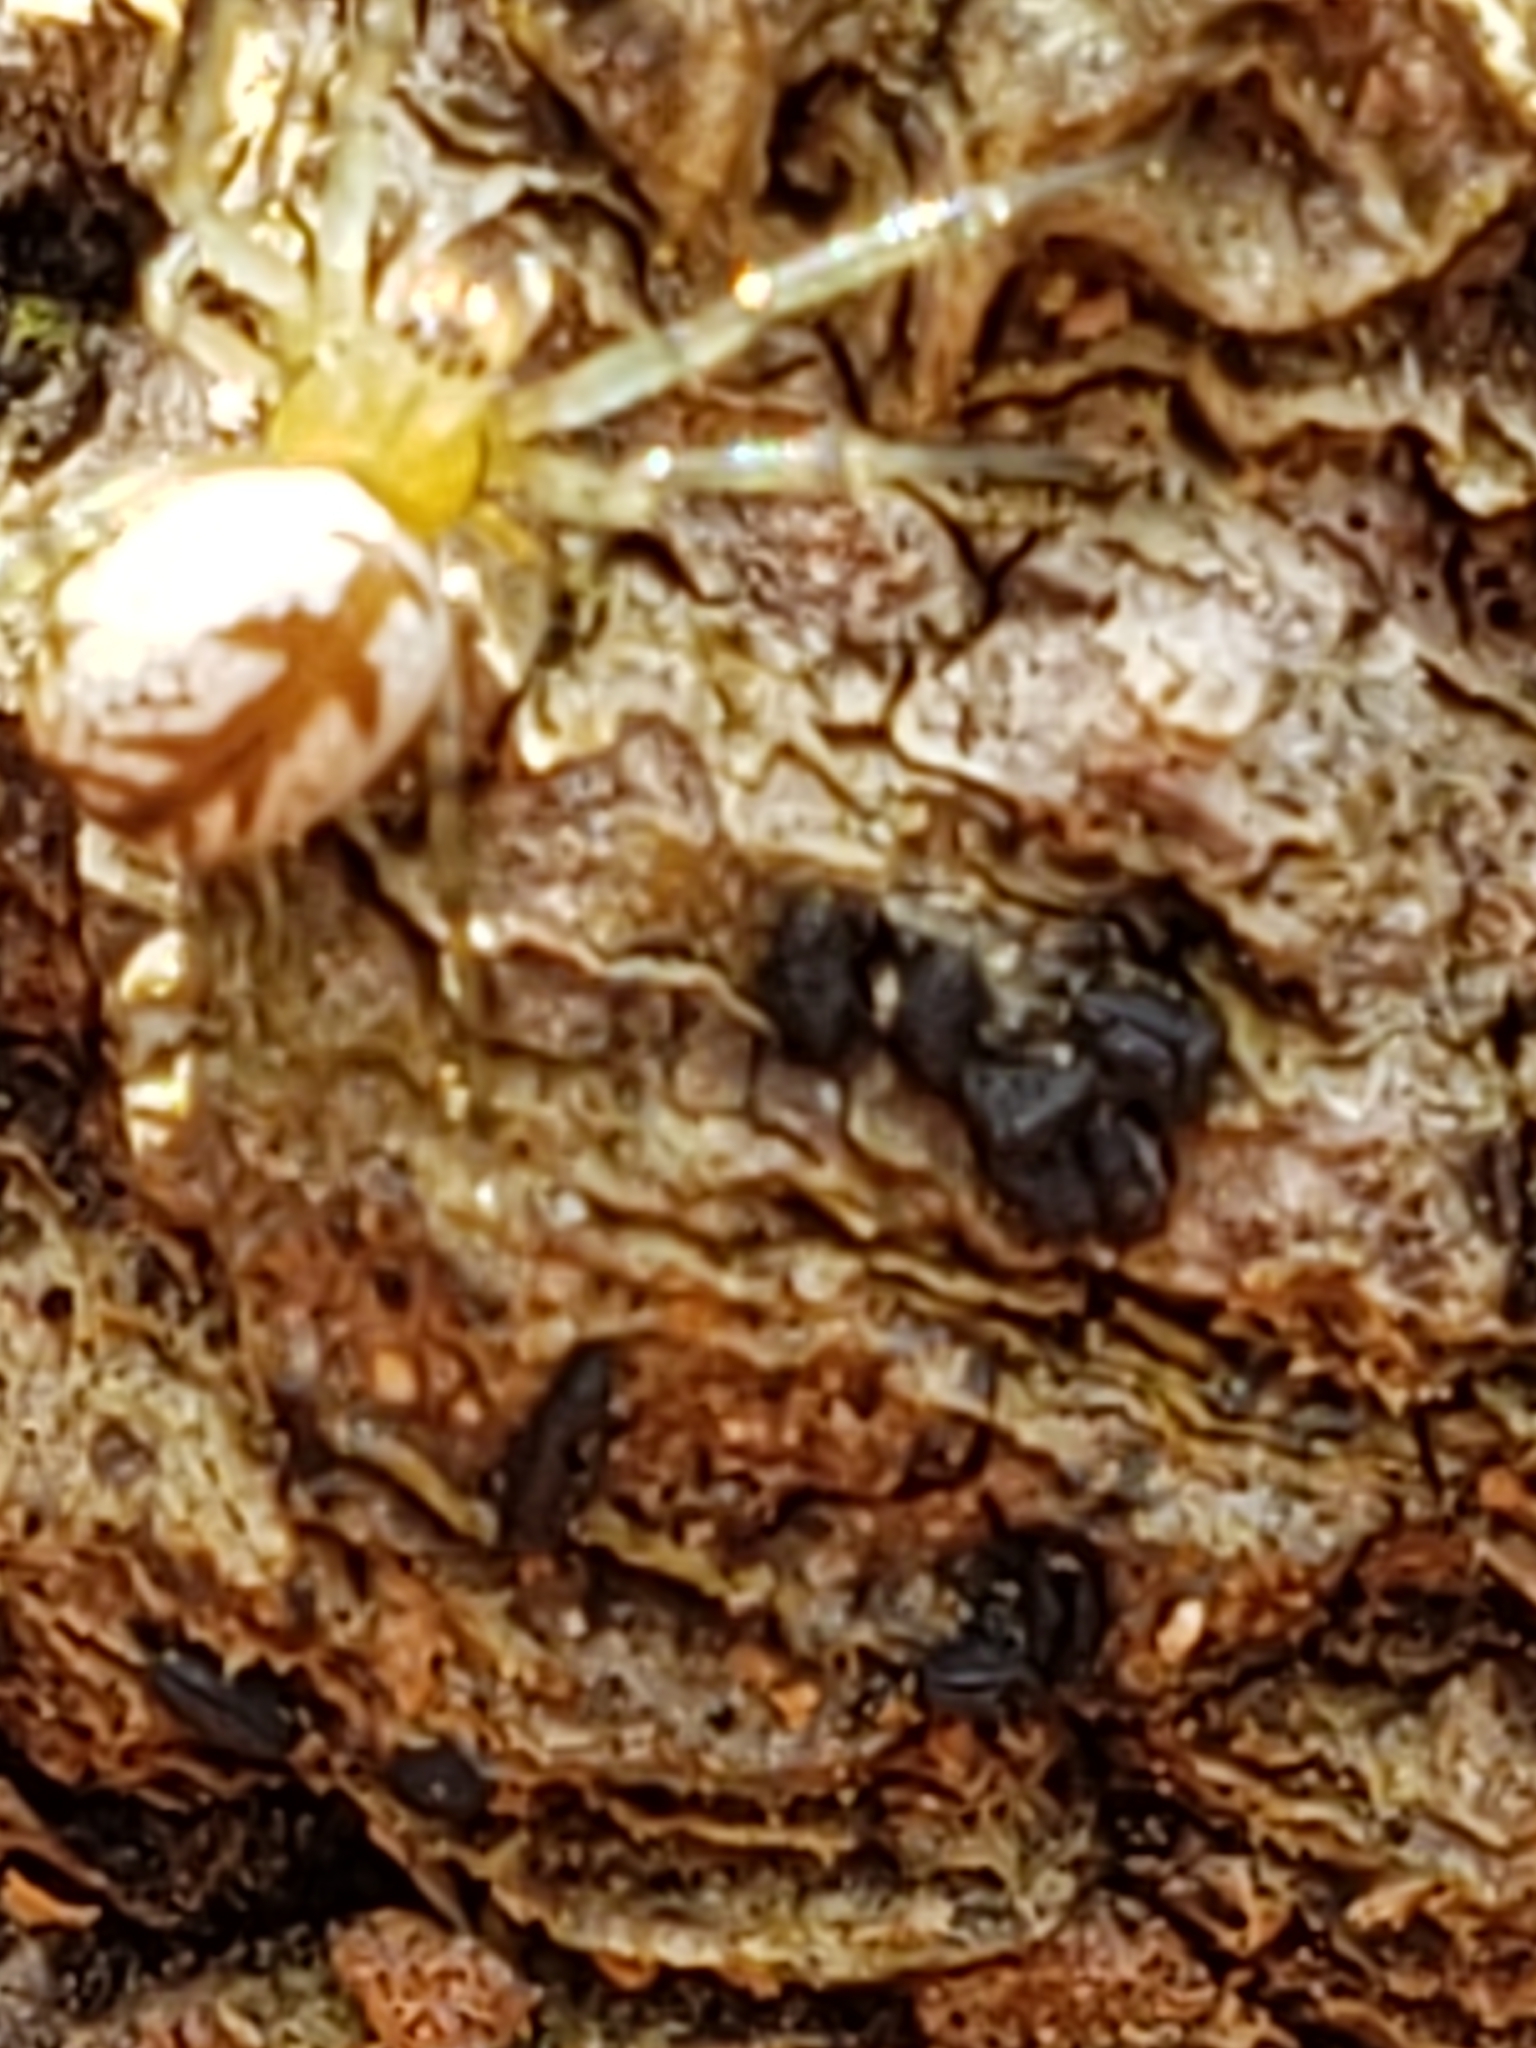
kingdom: Animalia
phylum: Arthropoda
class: Arachnida
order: Araneae
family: Tetragnathidae
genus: Leucauge
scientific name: Leucauge venusta
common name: Longjawed orb weavers
